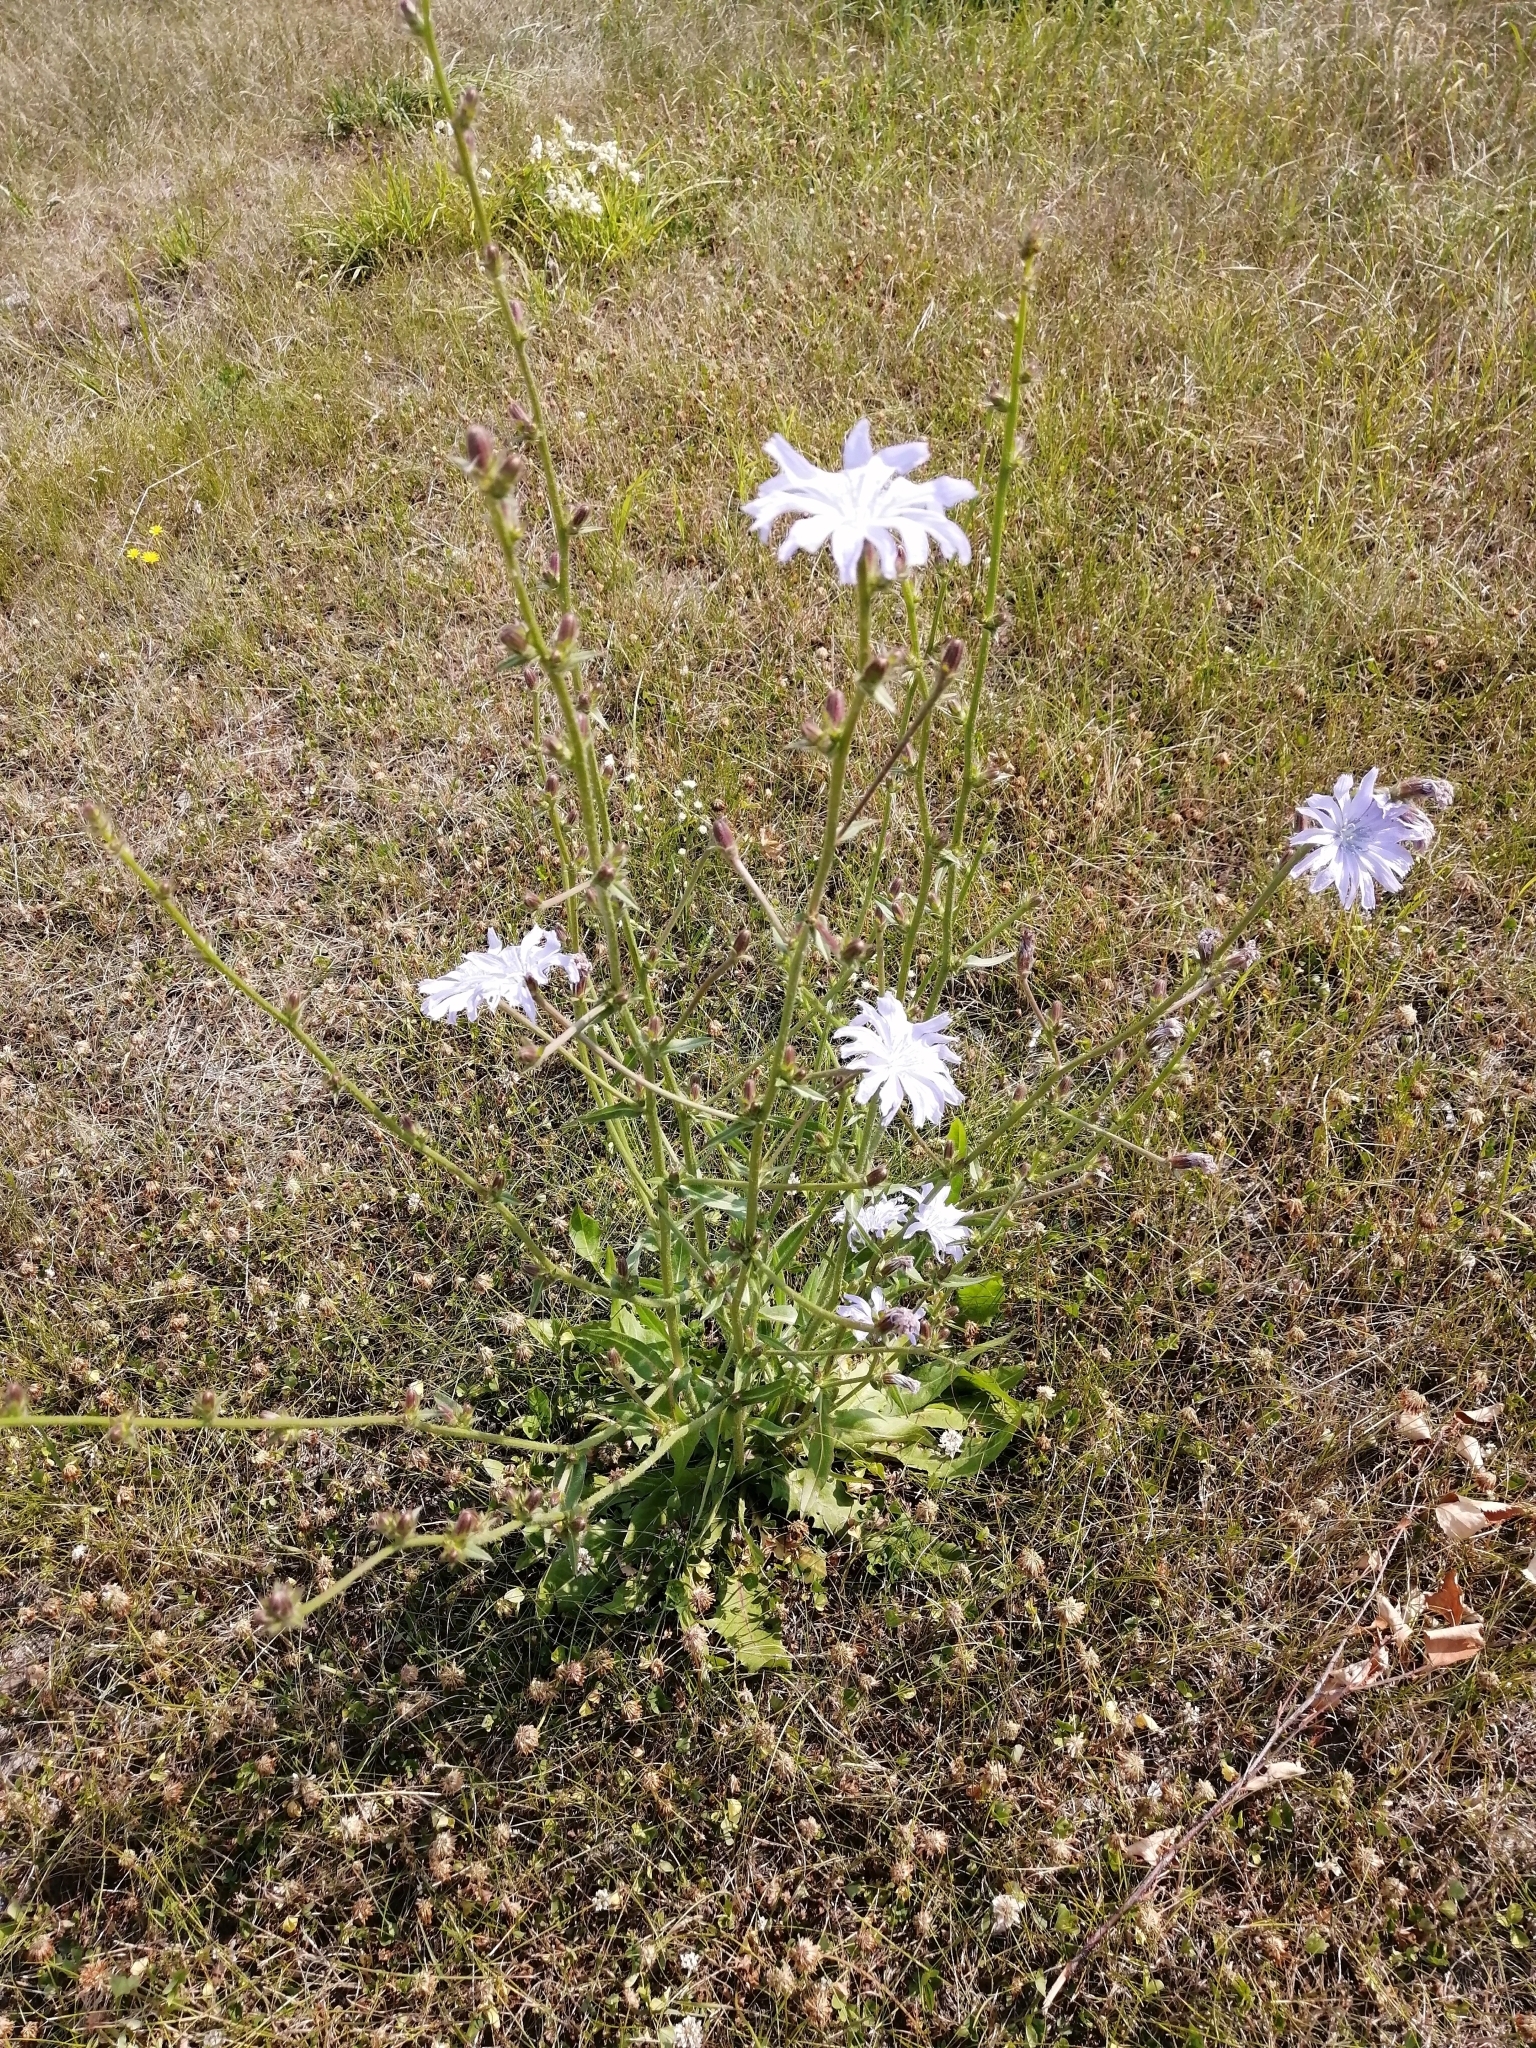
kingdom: Plantae
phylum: Tracheophyta
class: Magnoliopsida
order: Asterales
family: Asteraceae
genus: Cichorium
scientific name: Cichorium intybus
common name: Chicory
